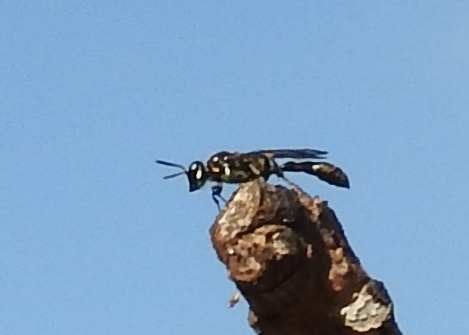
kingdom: Animalia
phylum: Arthropoda
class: Insecta
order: Hymenoptera
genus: Trypargilum
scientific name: Trypargilum
